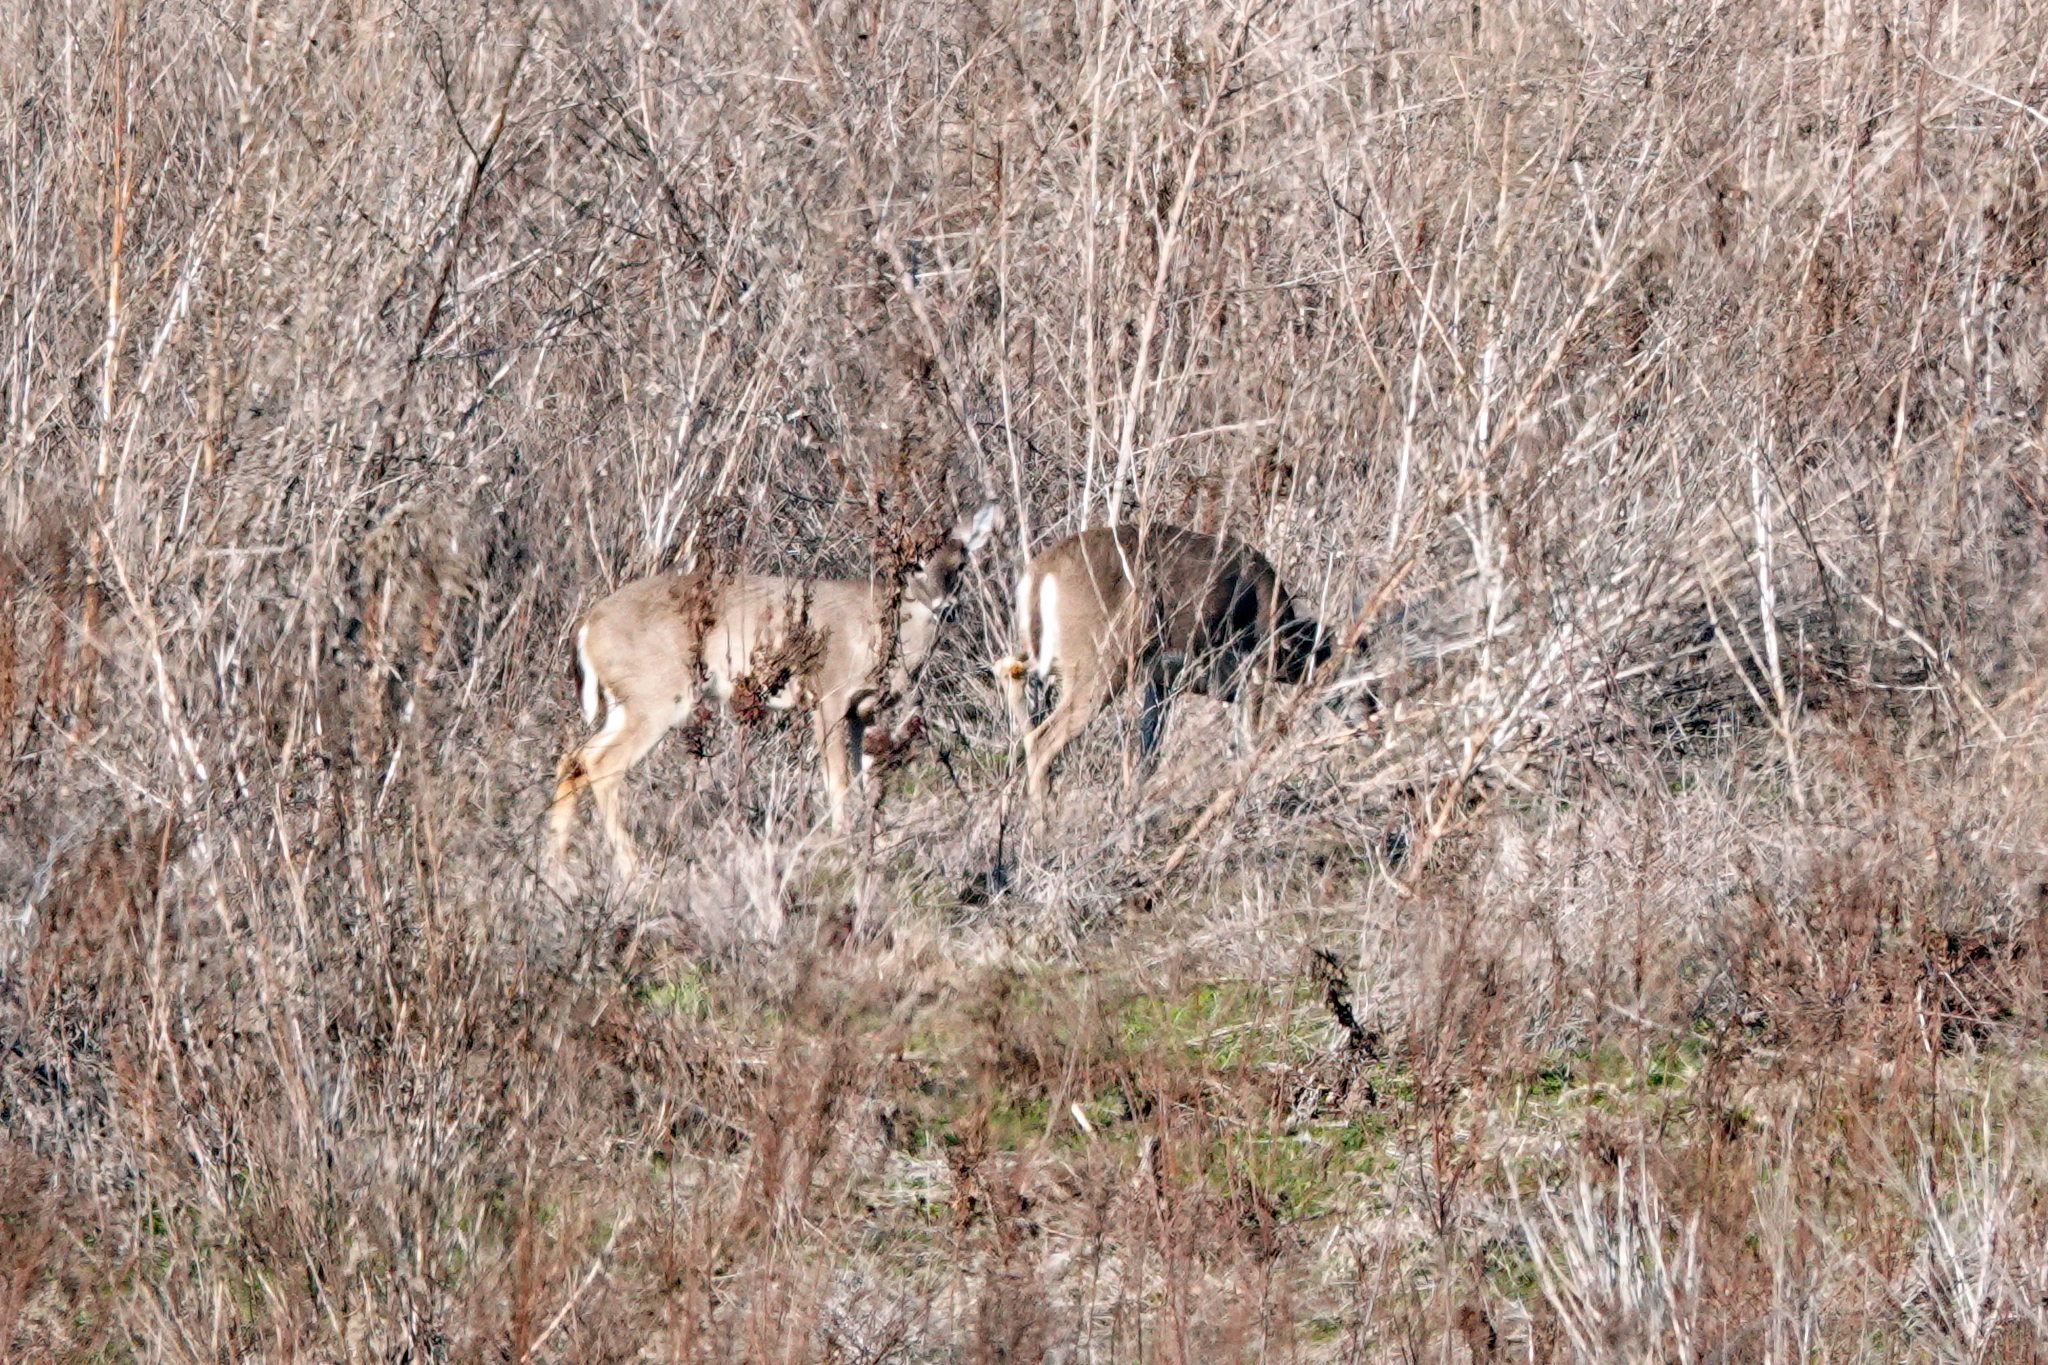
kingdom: Animalia
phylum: Chordata
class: Mammalia
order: Artiodactyla
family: Cervidae
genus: Odocoileus
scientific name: Odocoileus virginianus
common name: White-tailed deer
